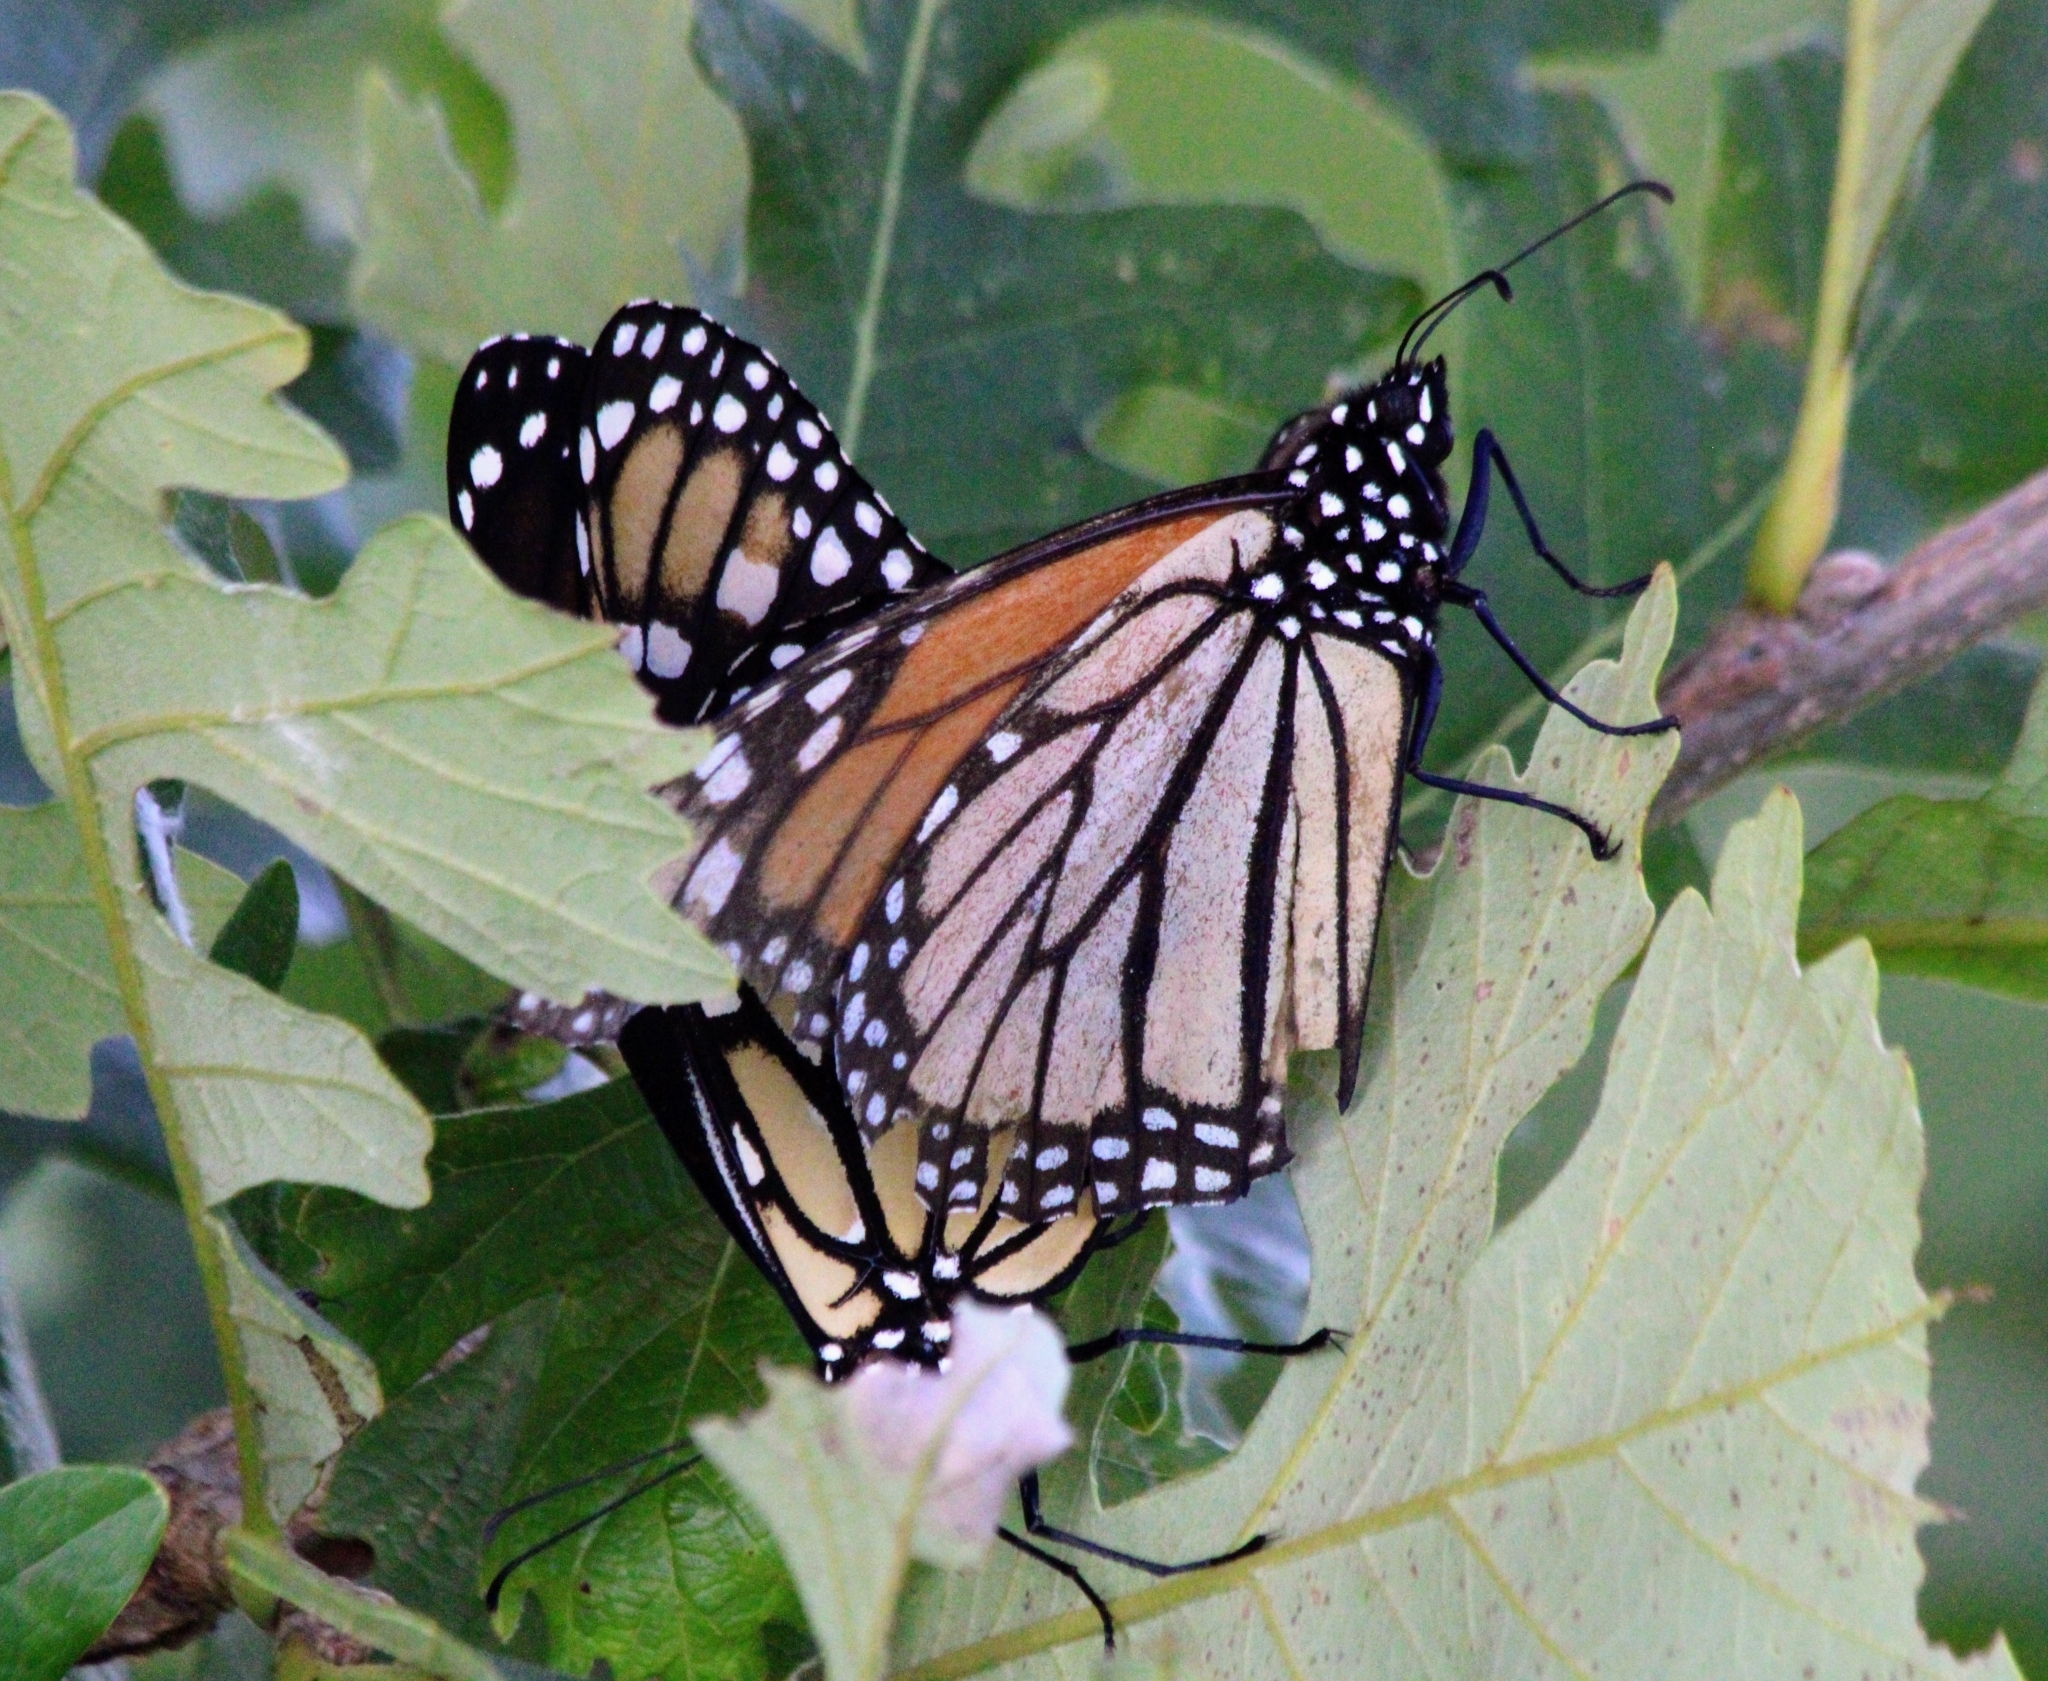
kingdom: Animalia
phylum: Arthropoda
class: Insecta
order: Lepidoptera
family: Nymphalidae
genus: Danaus
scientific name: Danaus plexippus
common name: Monarch
